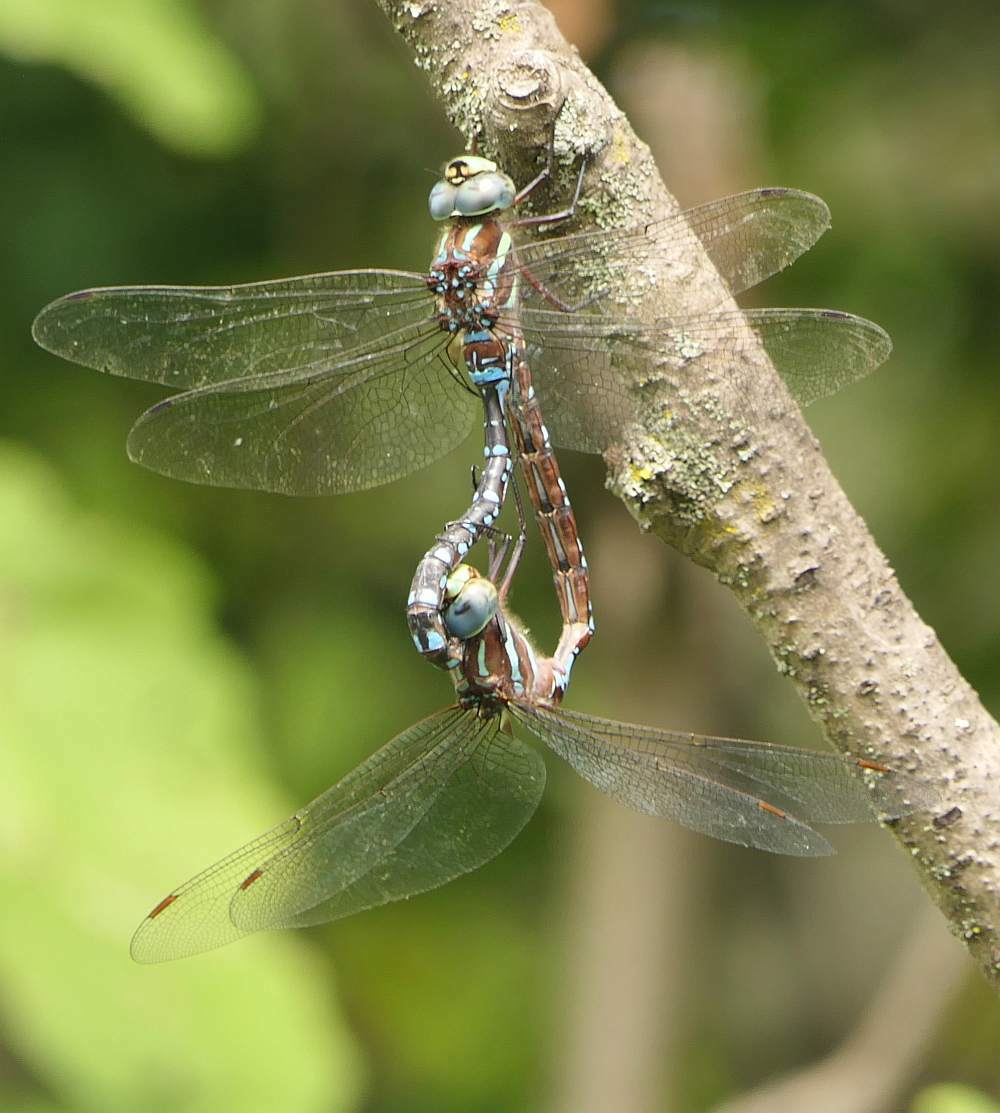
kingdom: Animalia
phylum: Arthropoda
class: Insecta
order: Odonata
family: Aeshnidae
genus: Aeshna
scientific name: Aeshna tuberculifera
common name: Aeschne à tubercules
